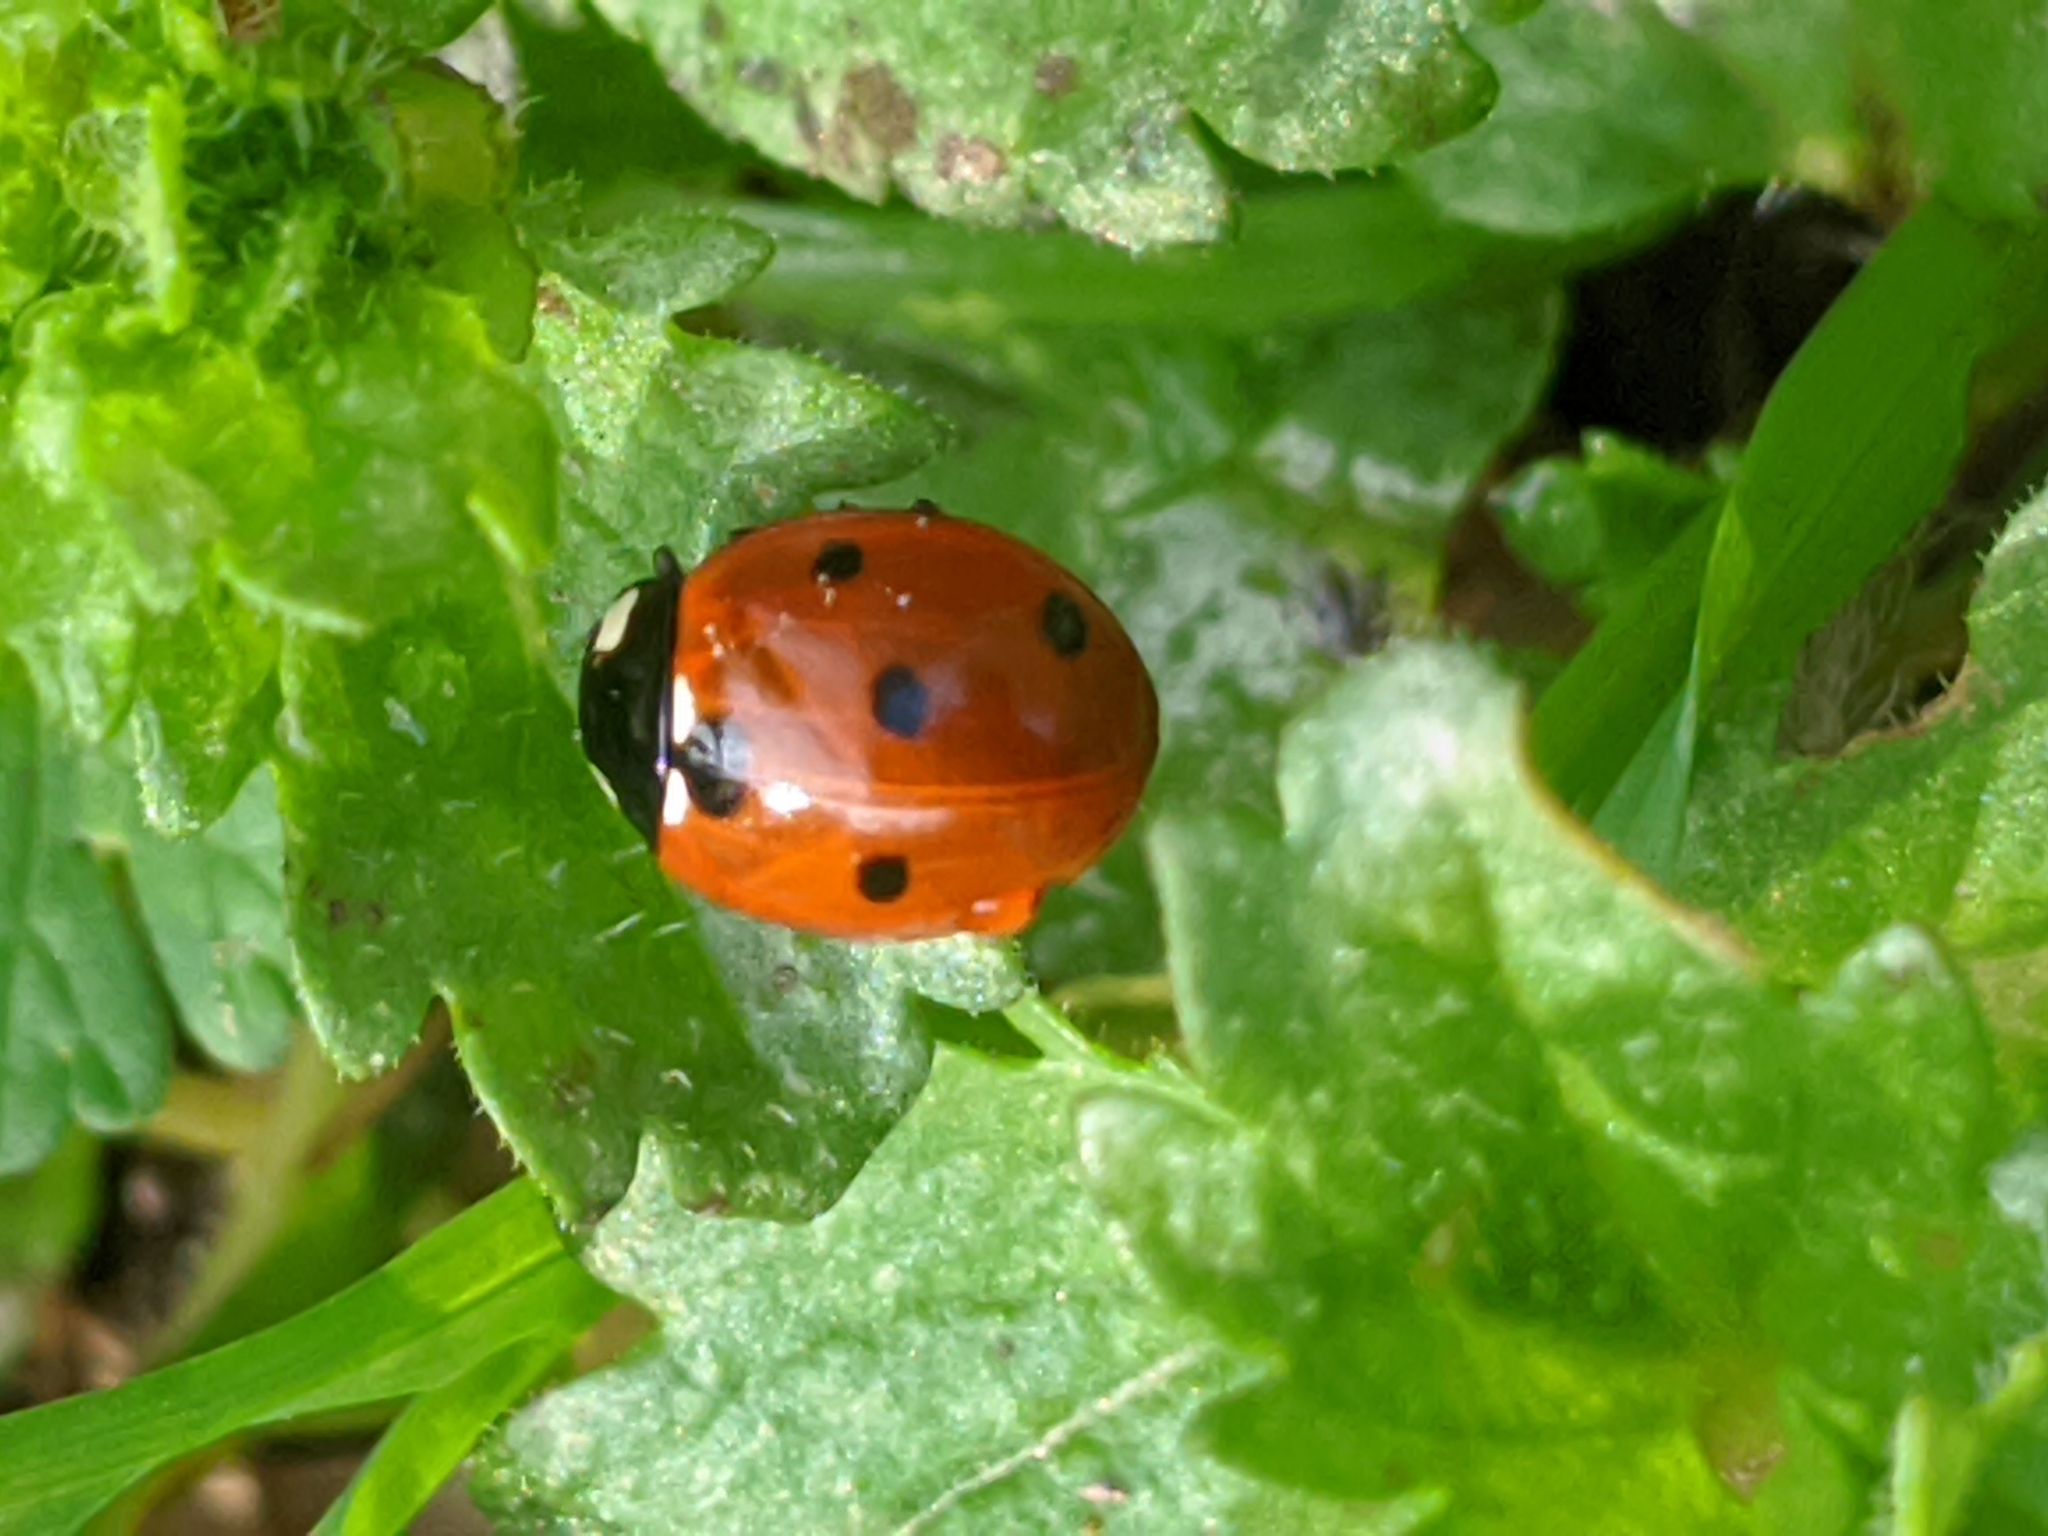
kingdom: Animalia
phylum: Arthropoda
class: Insecta
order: Coleoptera
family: Coccinellidae
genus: Coccinella
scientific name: Coccinella septempunctata
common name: Sevenspotted lady beetle
